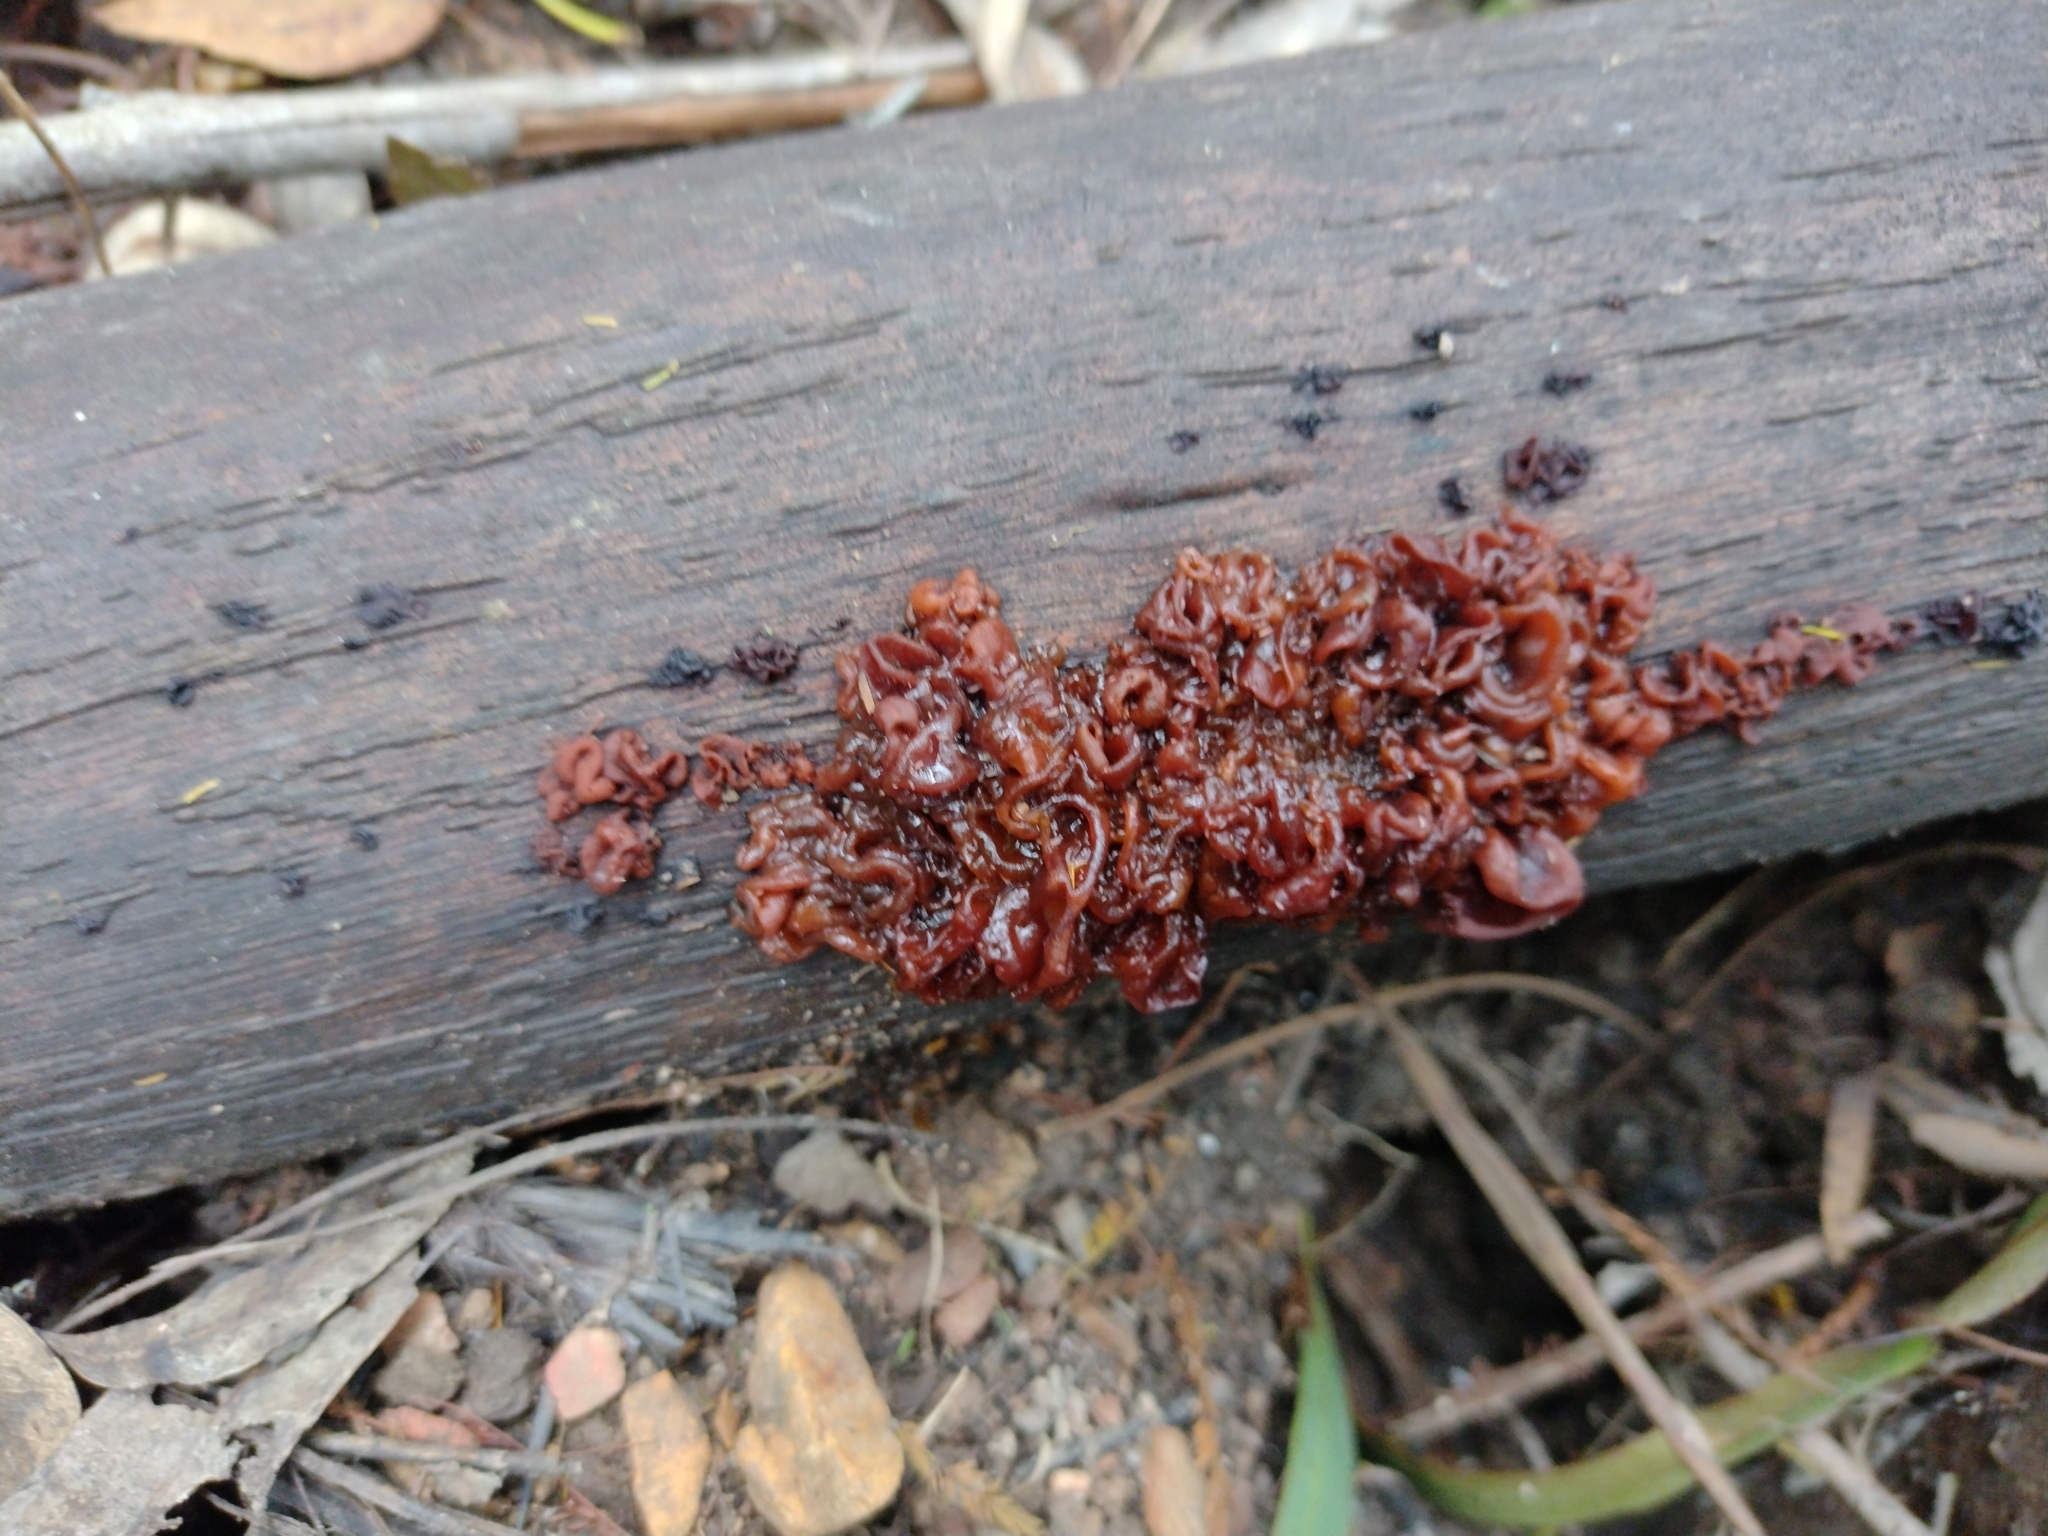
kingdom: Fungi
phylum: Basidiomycota
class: Tremellomycetes
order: Tremellales
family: Tremellaceae
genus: Phaeotremella
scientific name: Phaeotremella fimbriata
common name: Brown witch's butter
